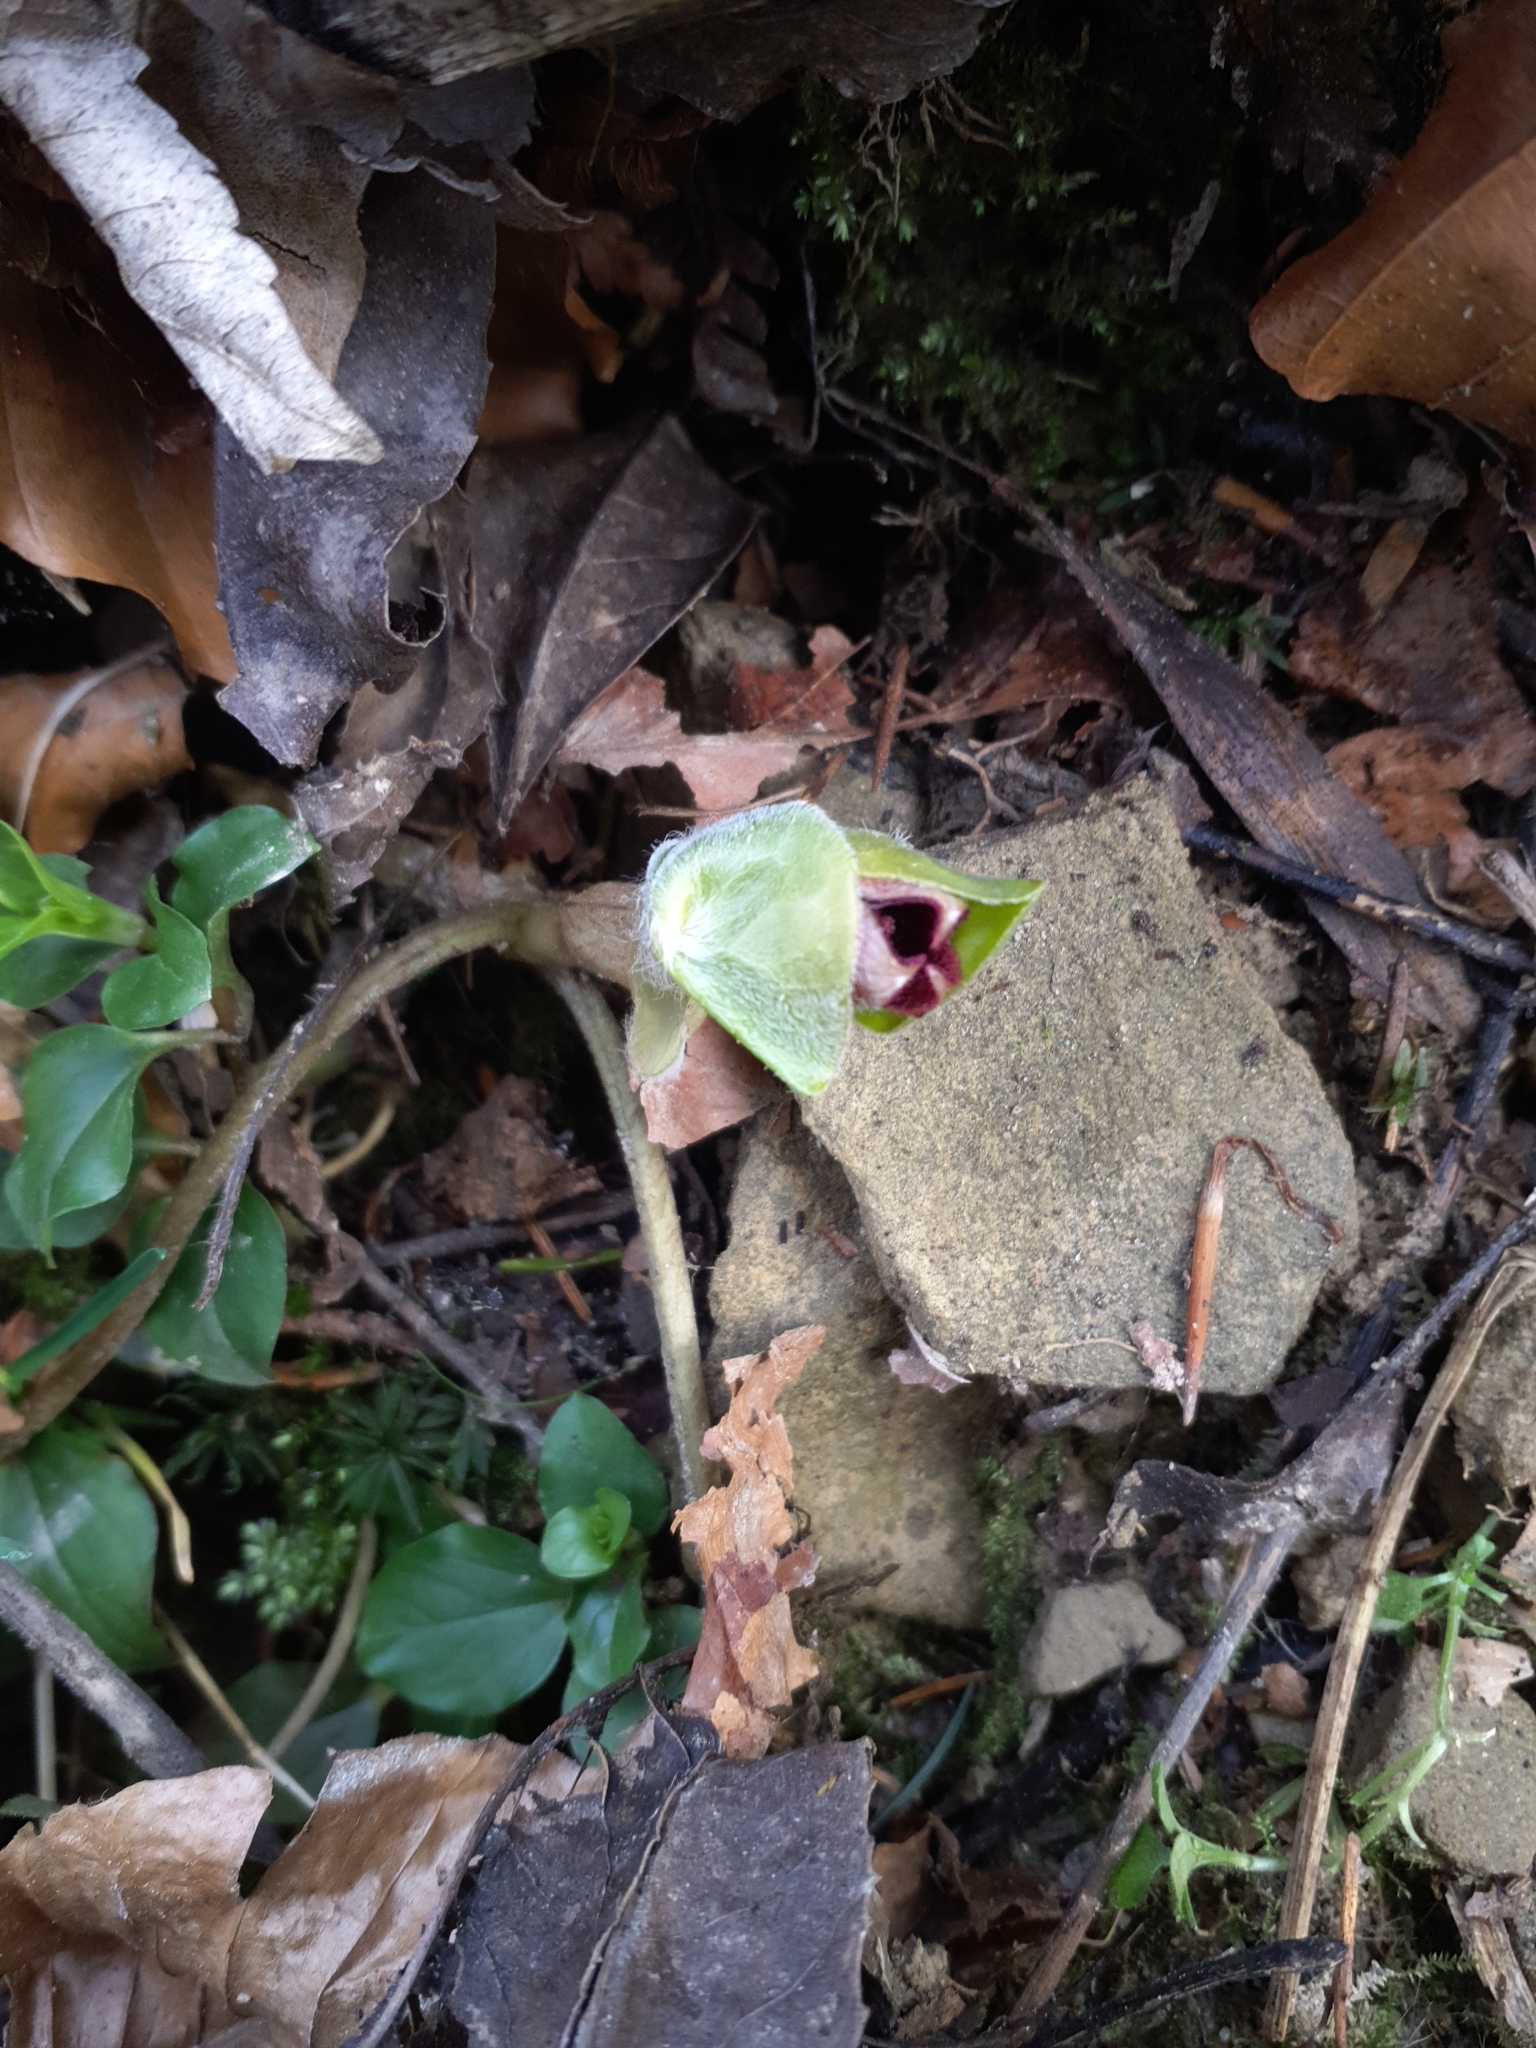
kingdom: Plantae
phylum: Tracheophyta
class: Magnoliopsida
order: Piperales
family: Aristolochiaceae
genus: Asarum
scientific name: Asarum europaeum
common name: Asarabacca
